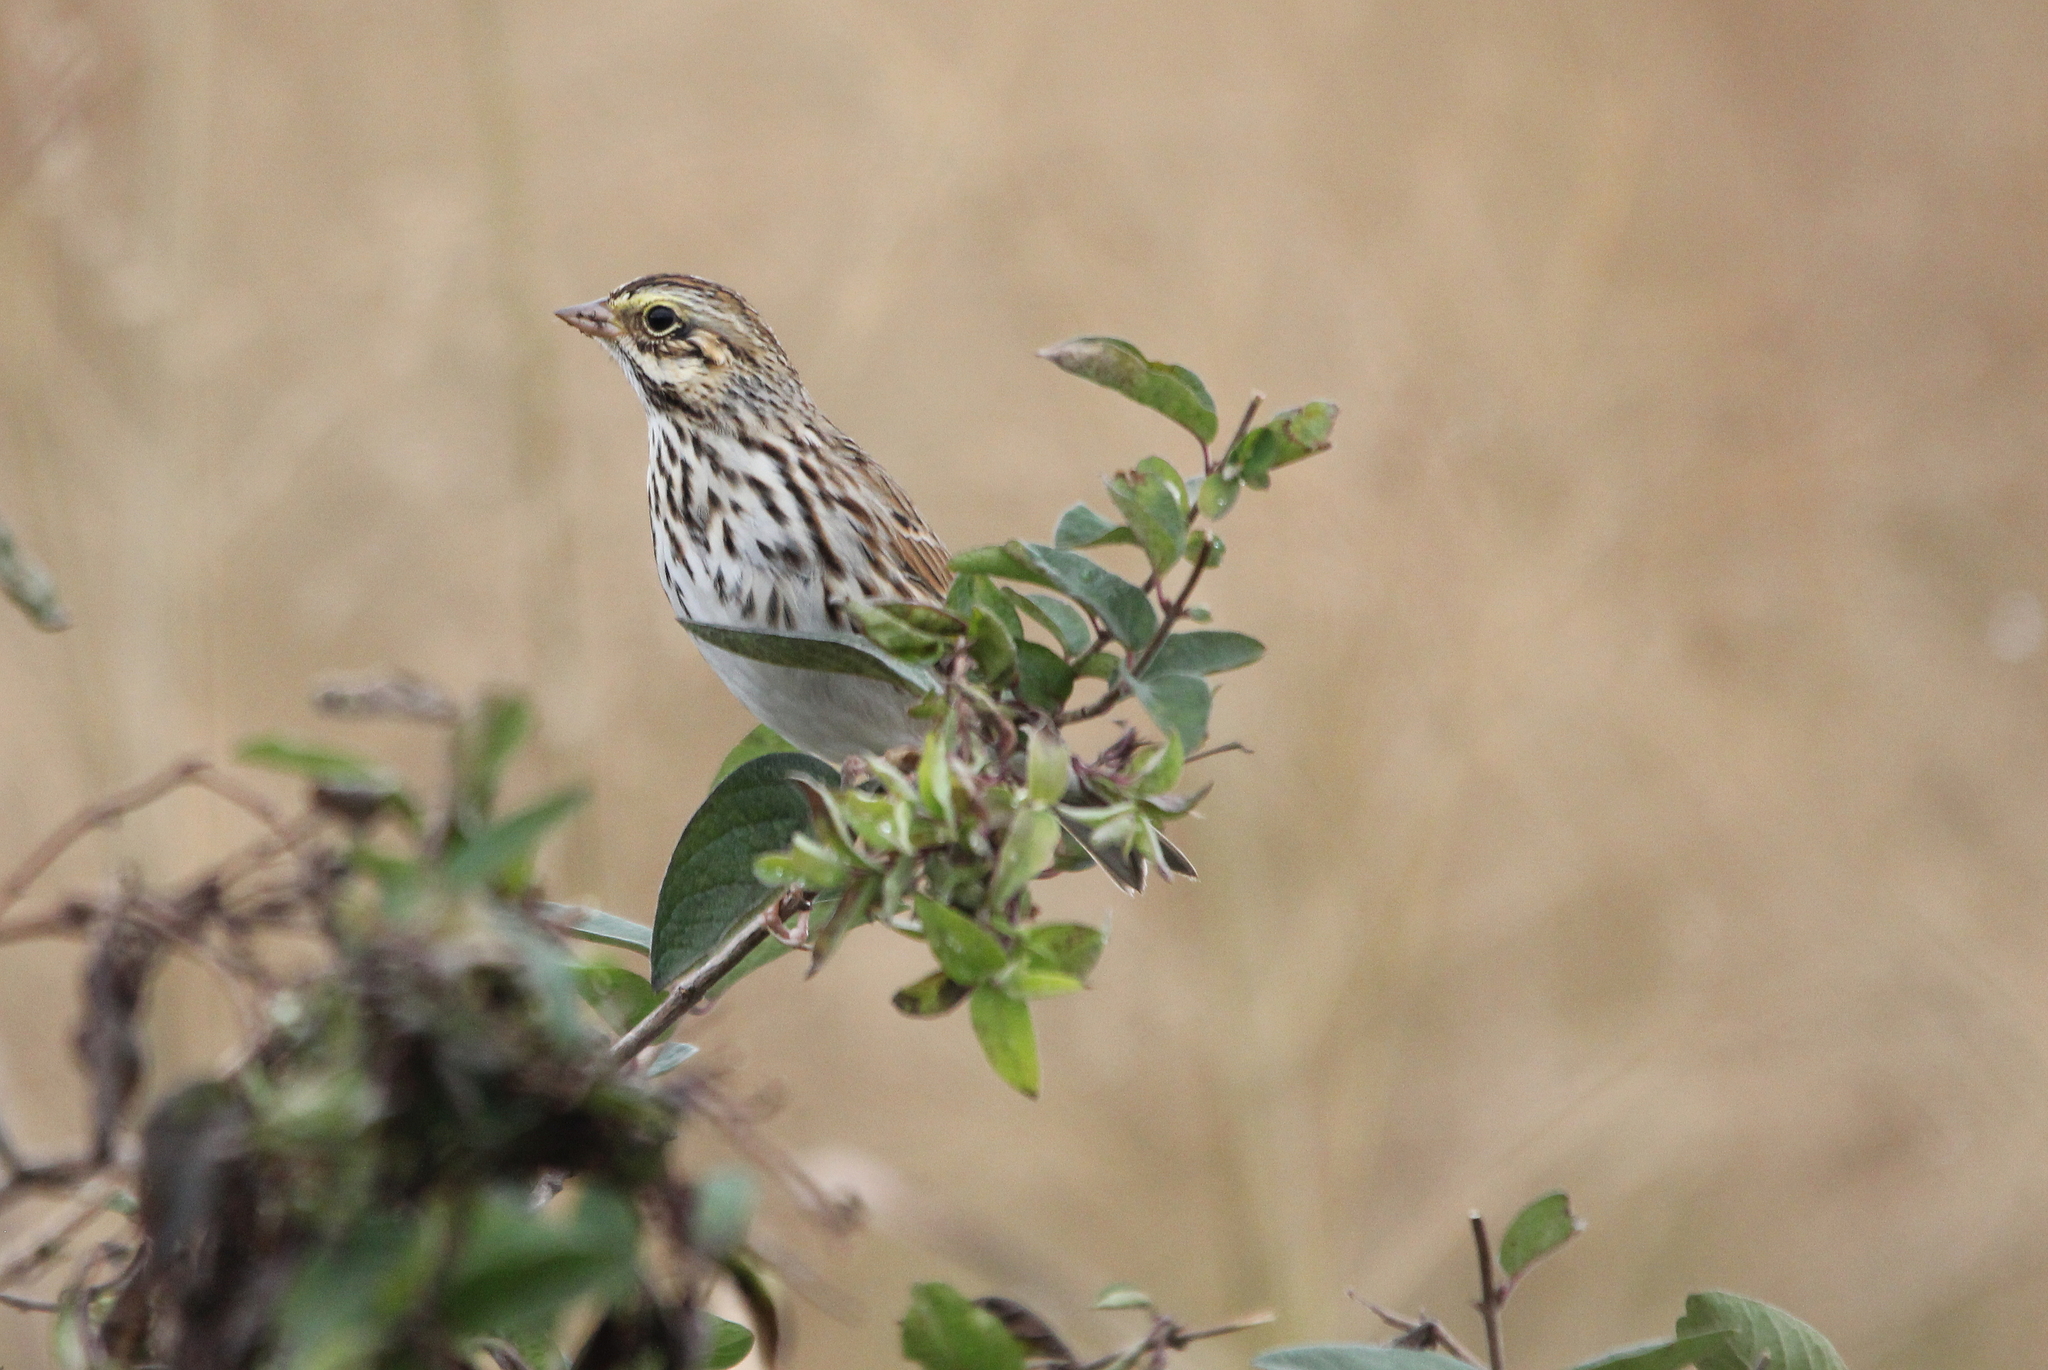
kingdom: Animalia
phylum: Chordata
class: Aves
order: Passeriformes
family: Passerellidae
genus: Passerculus
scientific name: Passerculus sandwichensis
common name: Savannah sparrow
